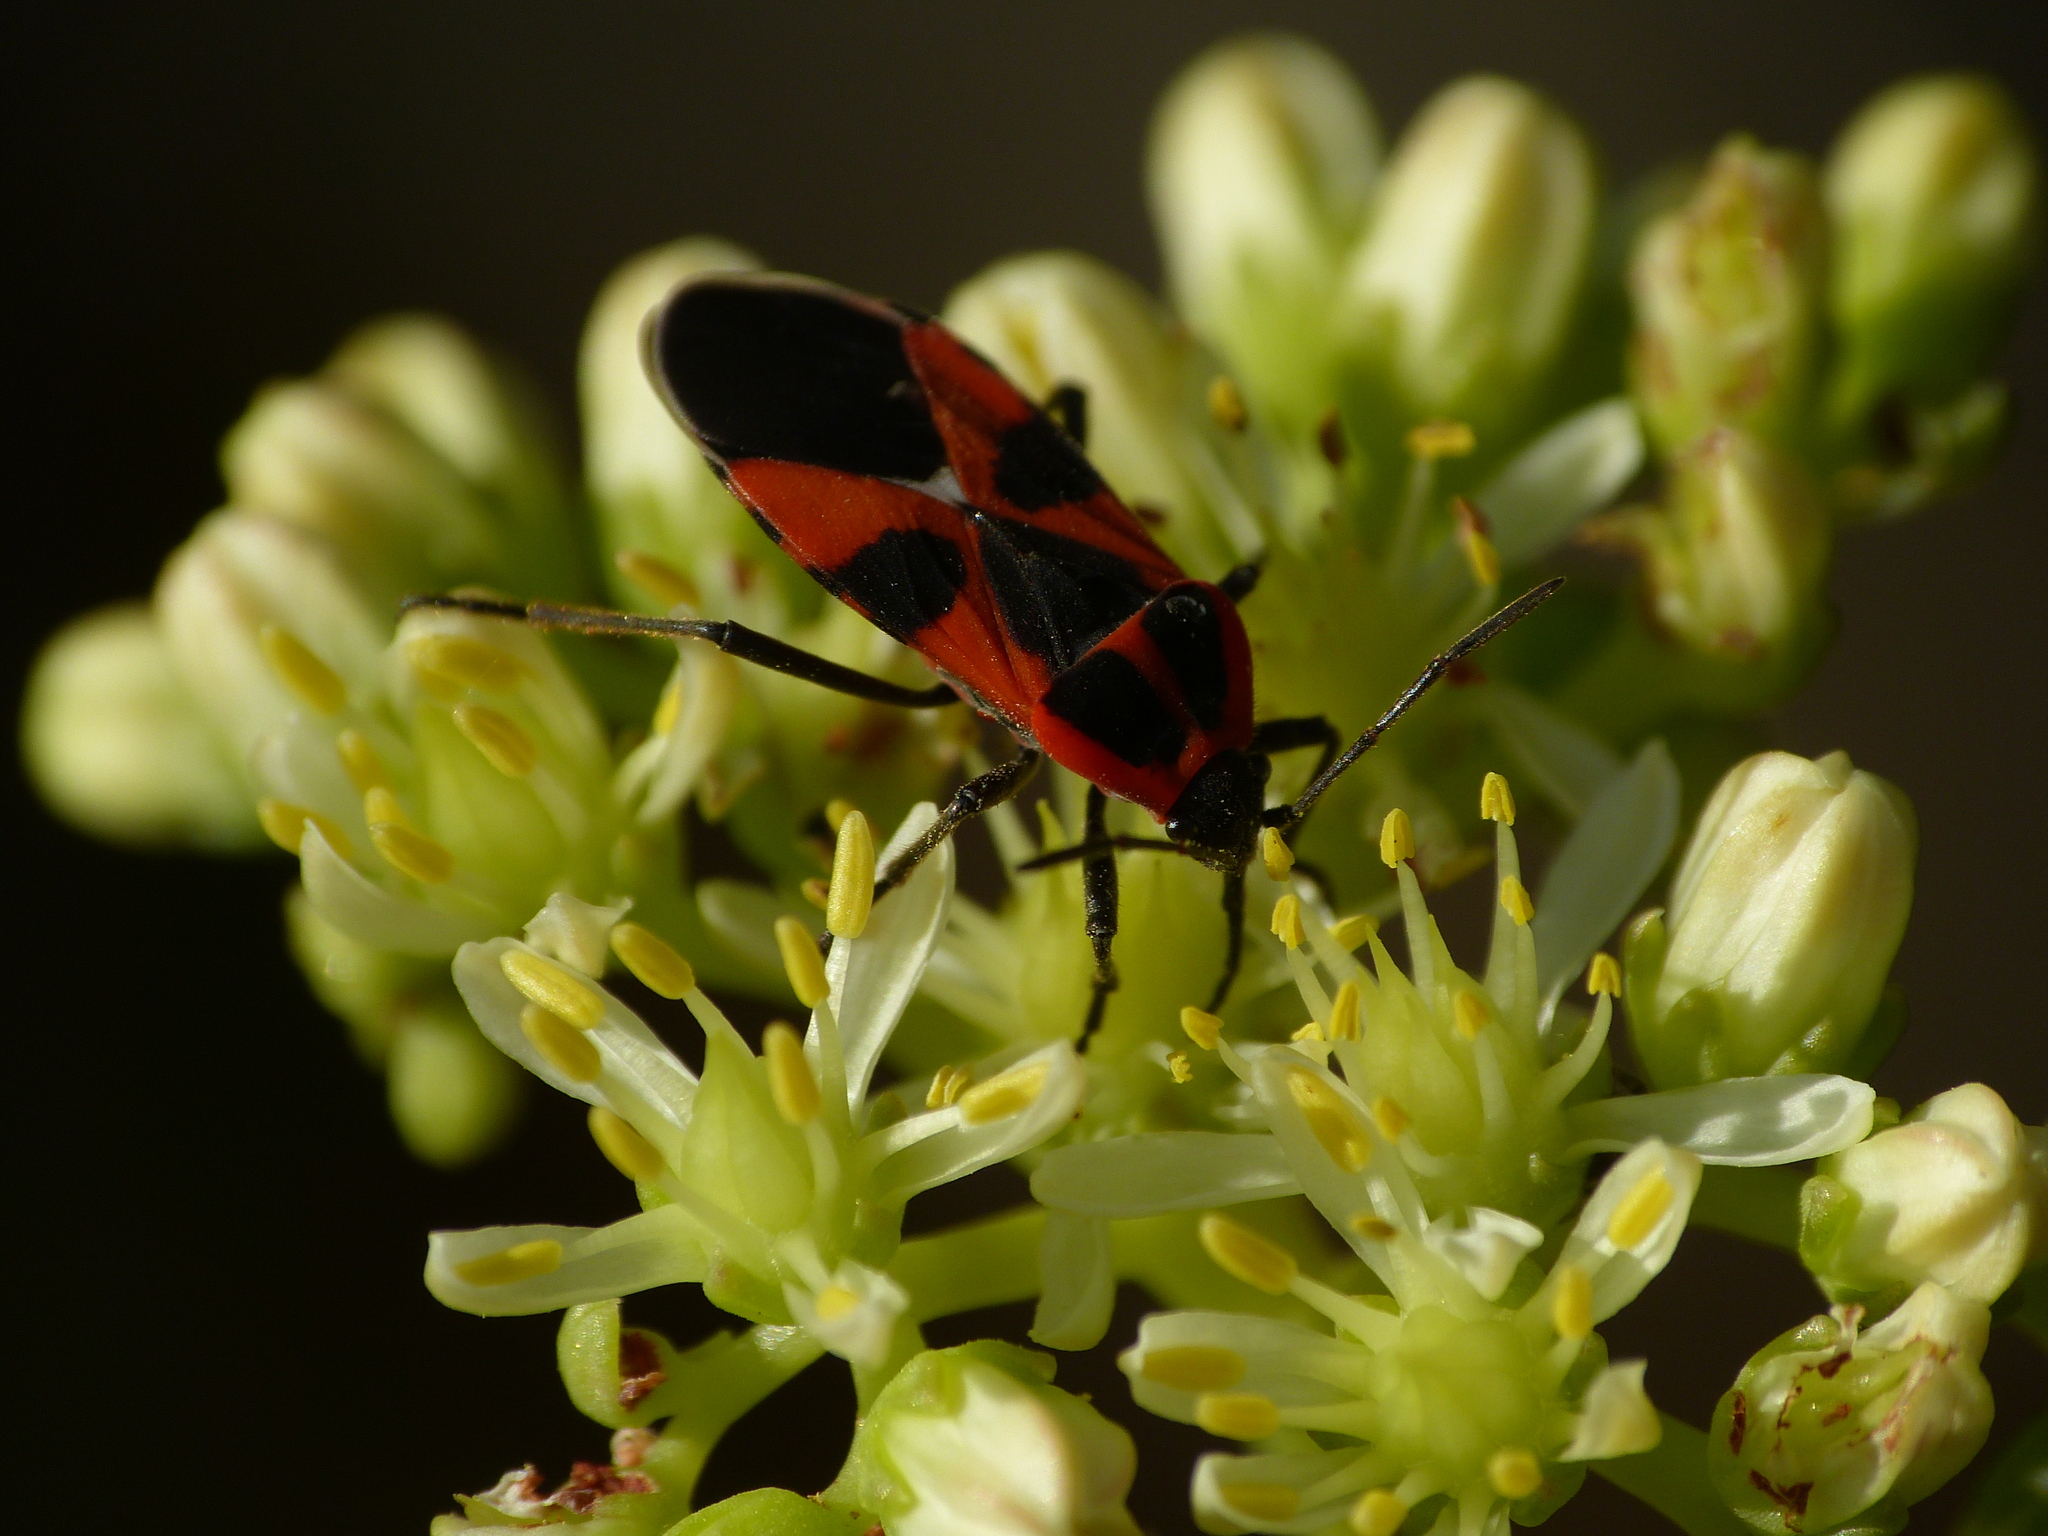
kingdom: Animalia
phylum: Arthropoda
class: Insecta
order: Hemiptera
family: Lygaeidae
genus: Tropidothorax
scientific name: Tropidothorax leucopterus
